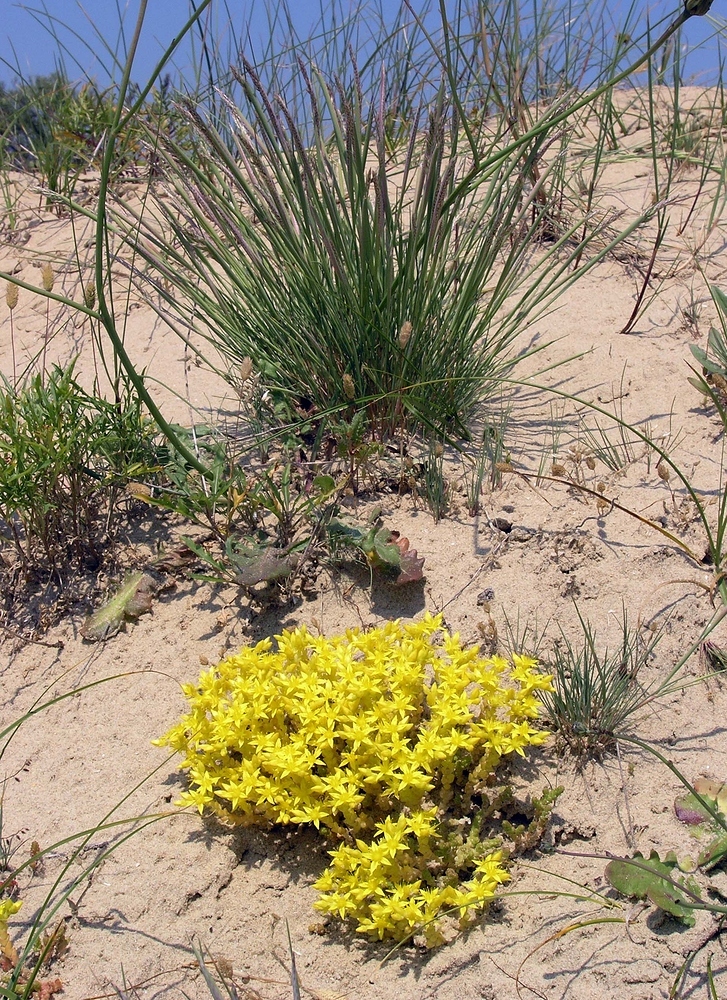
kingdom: Plantae
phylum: Tracheophyta
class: Magnoliopsida
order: Saxifragales
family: Crassulaceae
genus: Sedum
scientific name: Sedum acre
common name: Biting stonecrop
